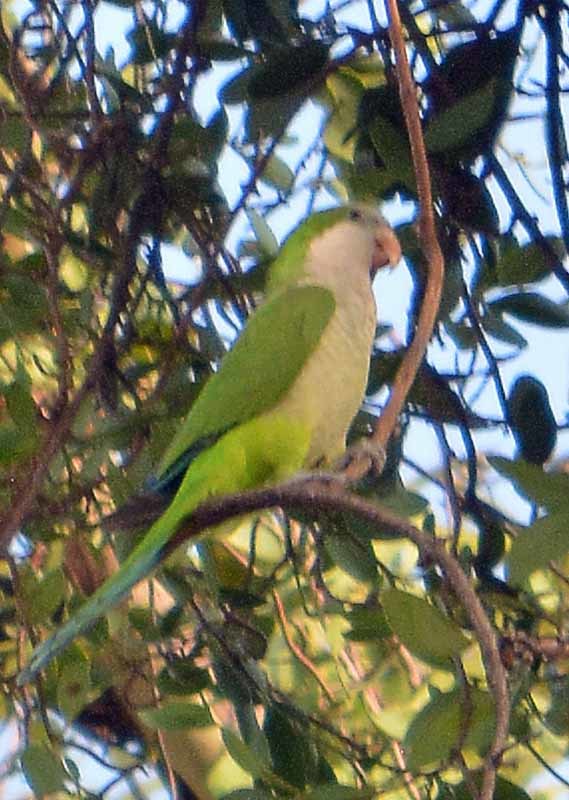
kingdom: Animalia
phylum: Chordata
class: Aves
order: Psittaciformes
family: Psittacidae
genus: Myiopsitta
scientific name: Myiopsitta monachus
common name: Monk parakeet
